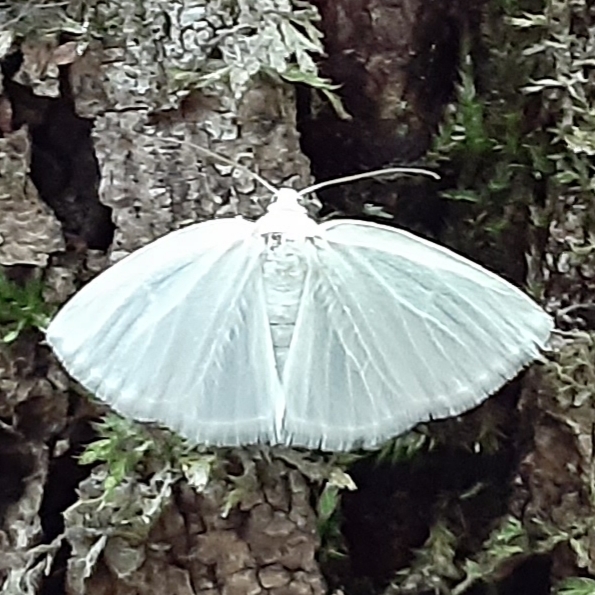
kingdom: Animalia
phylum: Arthropoda
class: Insecta
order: Lepidoptera
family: Geometridae
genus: Lomographa
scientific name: Lomographa vestaliata
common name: White spring moth
